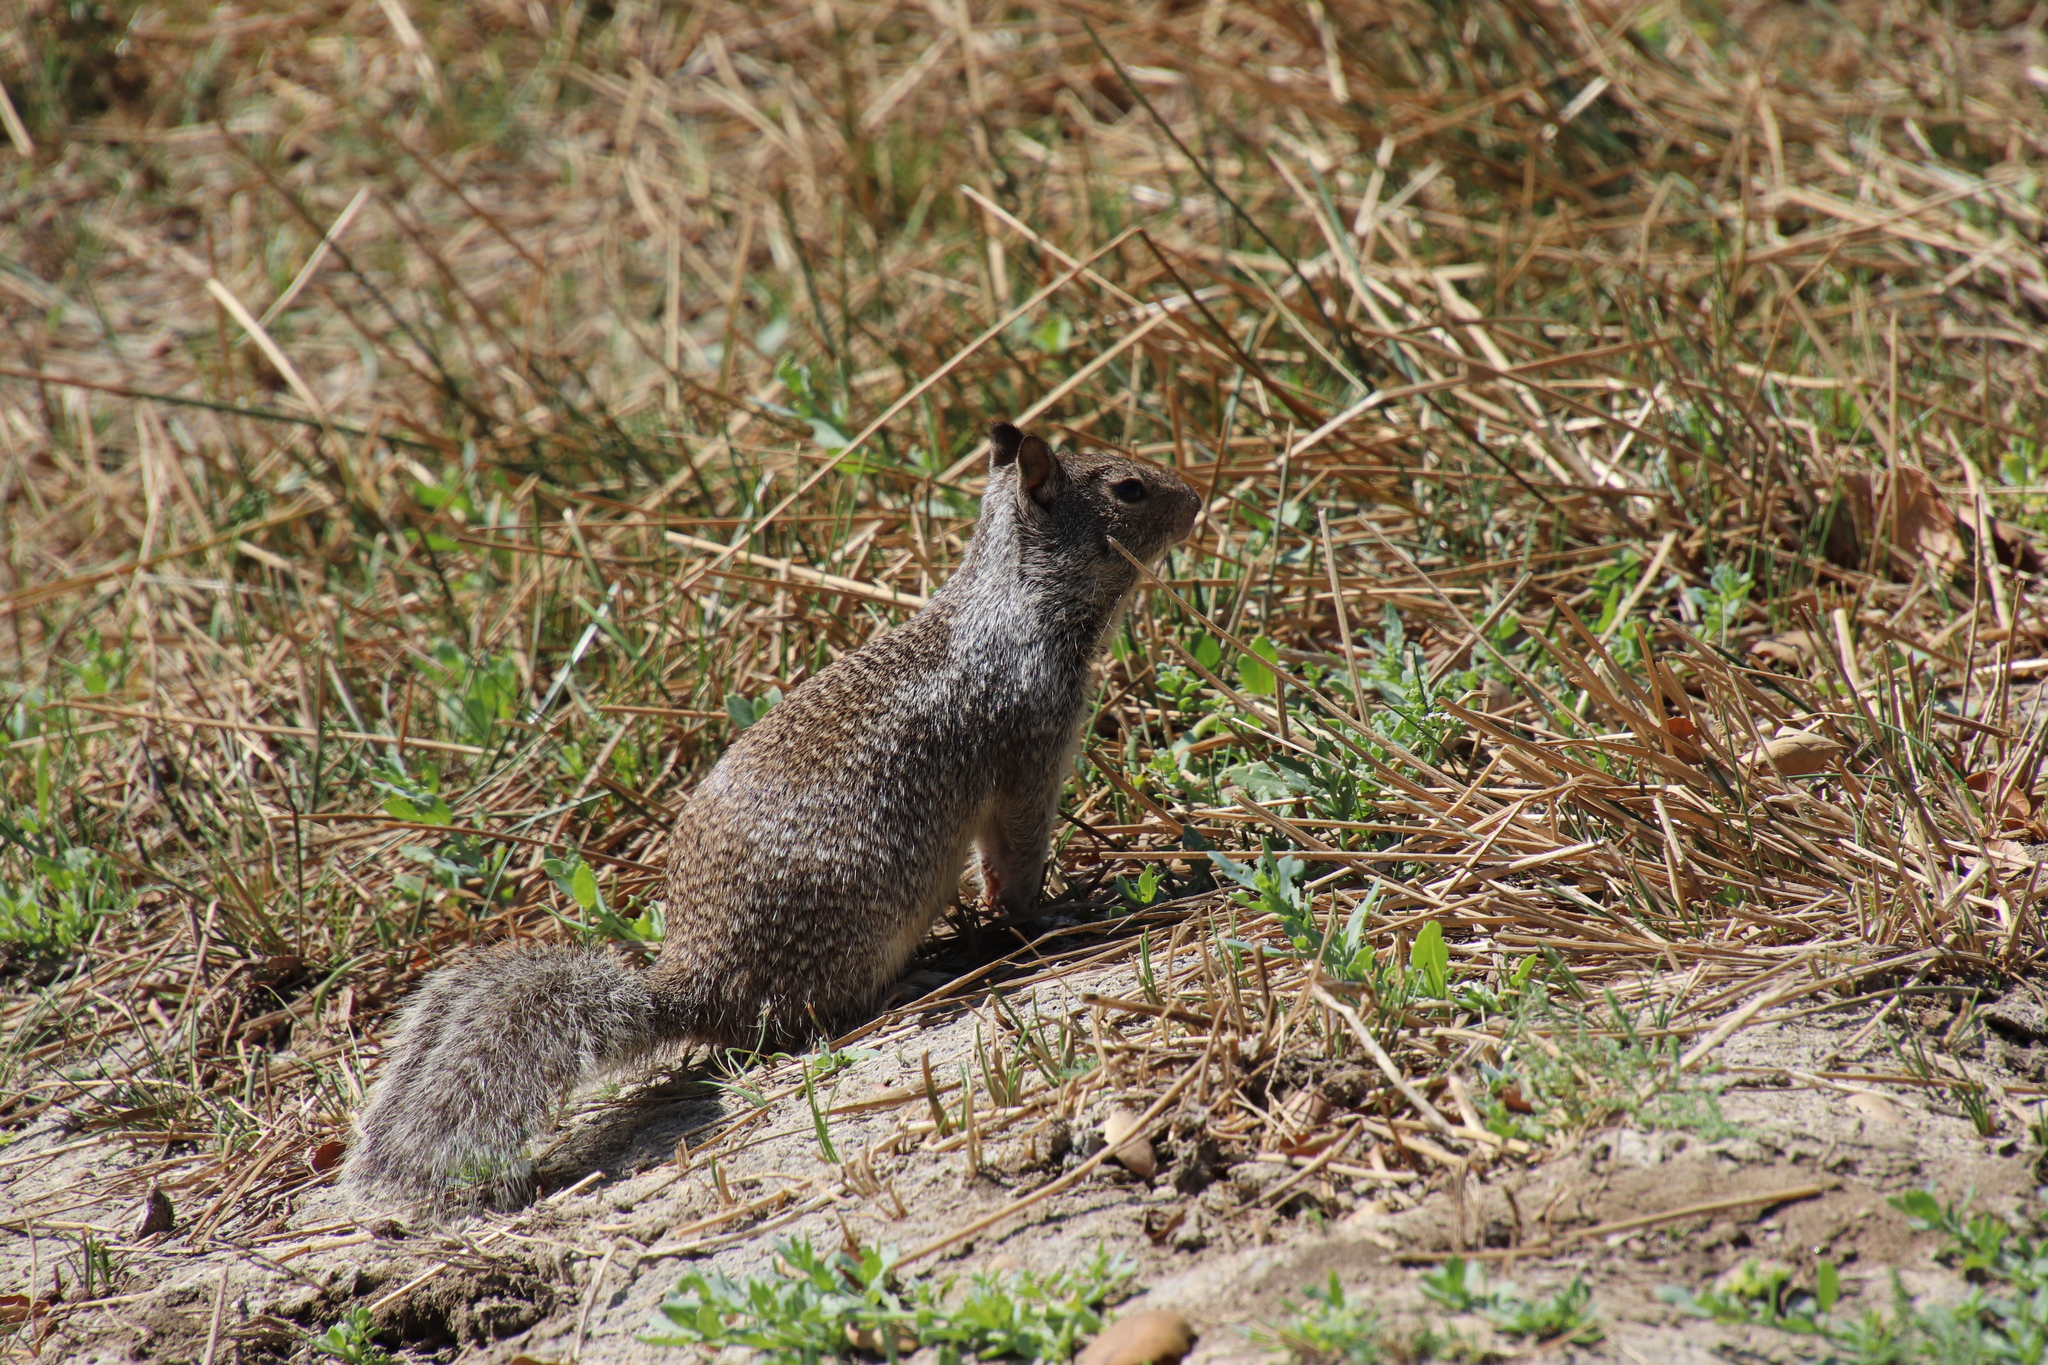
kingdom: Animalia
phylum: Chordata
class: Mammalia
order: Rodentia
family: Sciuridae
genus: Otospermophilus
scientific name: Otospermophilus beecheyi
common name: California ground squirrel
